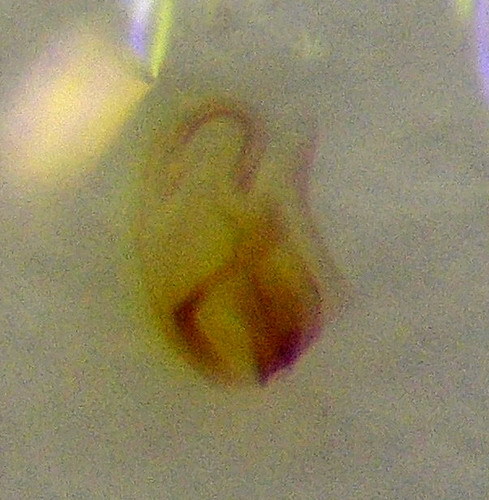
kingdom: Animalia
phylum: Arthropoda
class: Insecta
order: Hemiptera
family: Pentatomidae
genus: Tarisa
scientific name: Tarisa elevata
